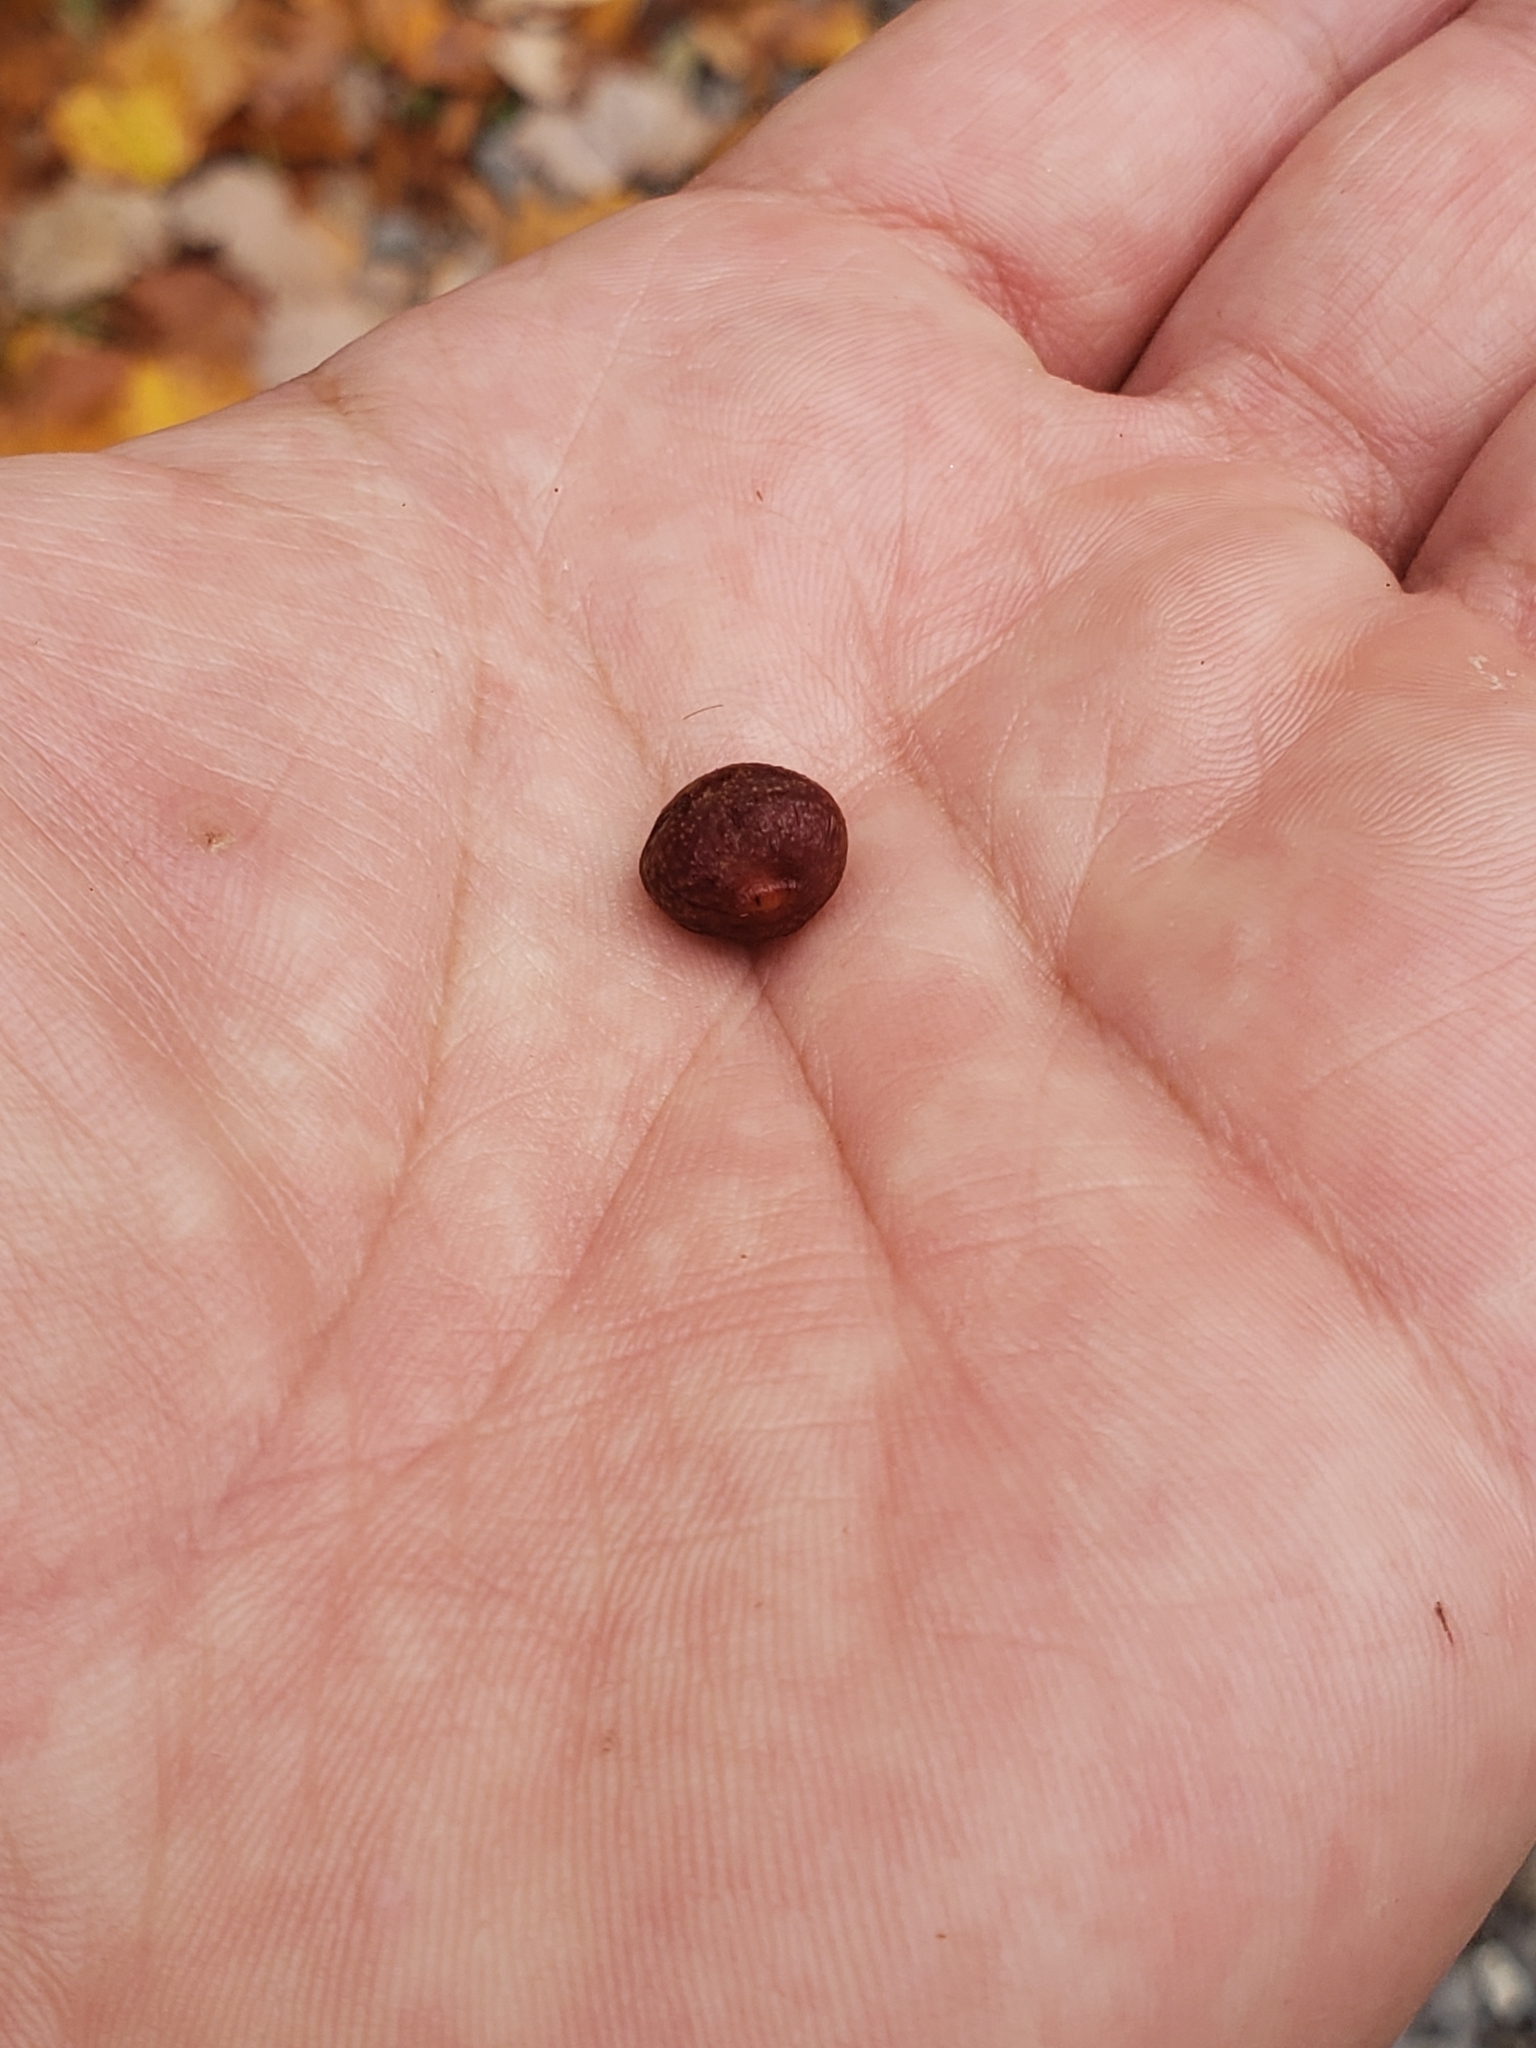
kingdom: Animalia
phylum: Arthropoda
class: Insecta
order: Hymenoptera
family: Cynipidae
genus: Kokkocynips
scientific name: Kokkocynips imbricariae
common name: Banded bullet gall wasp
